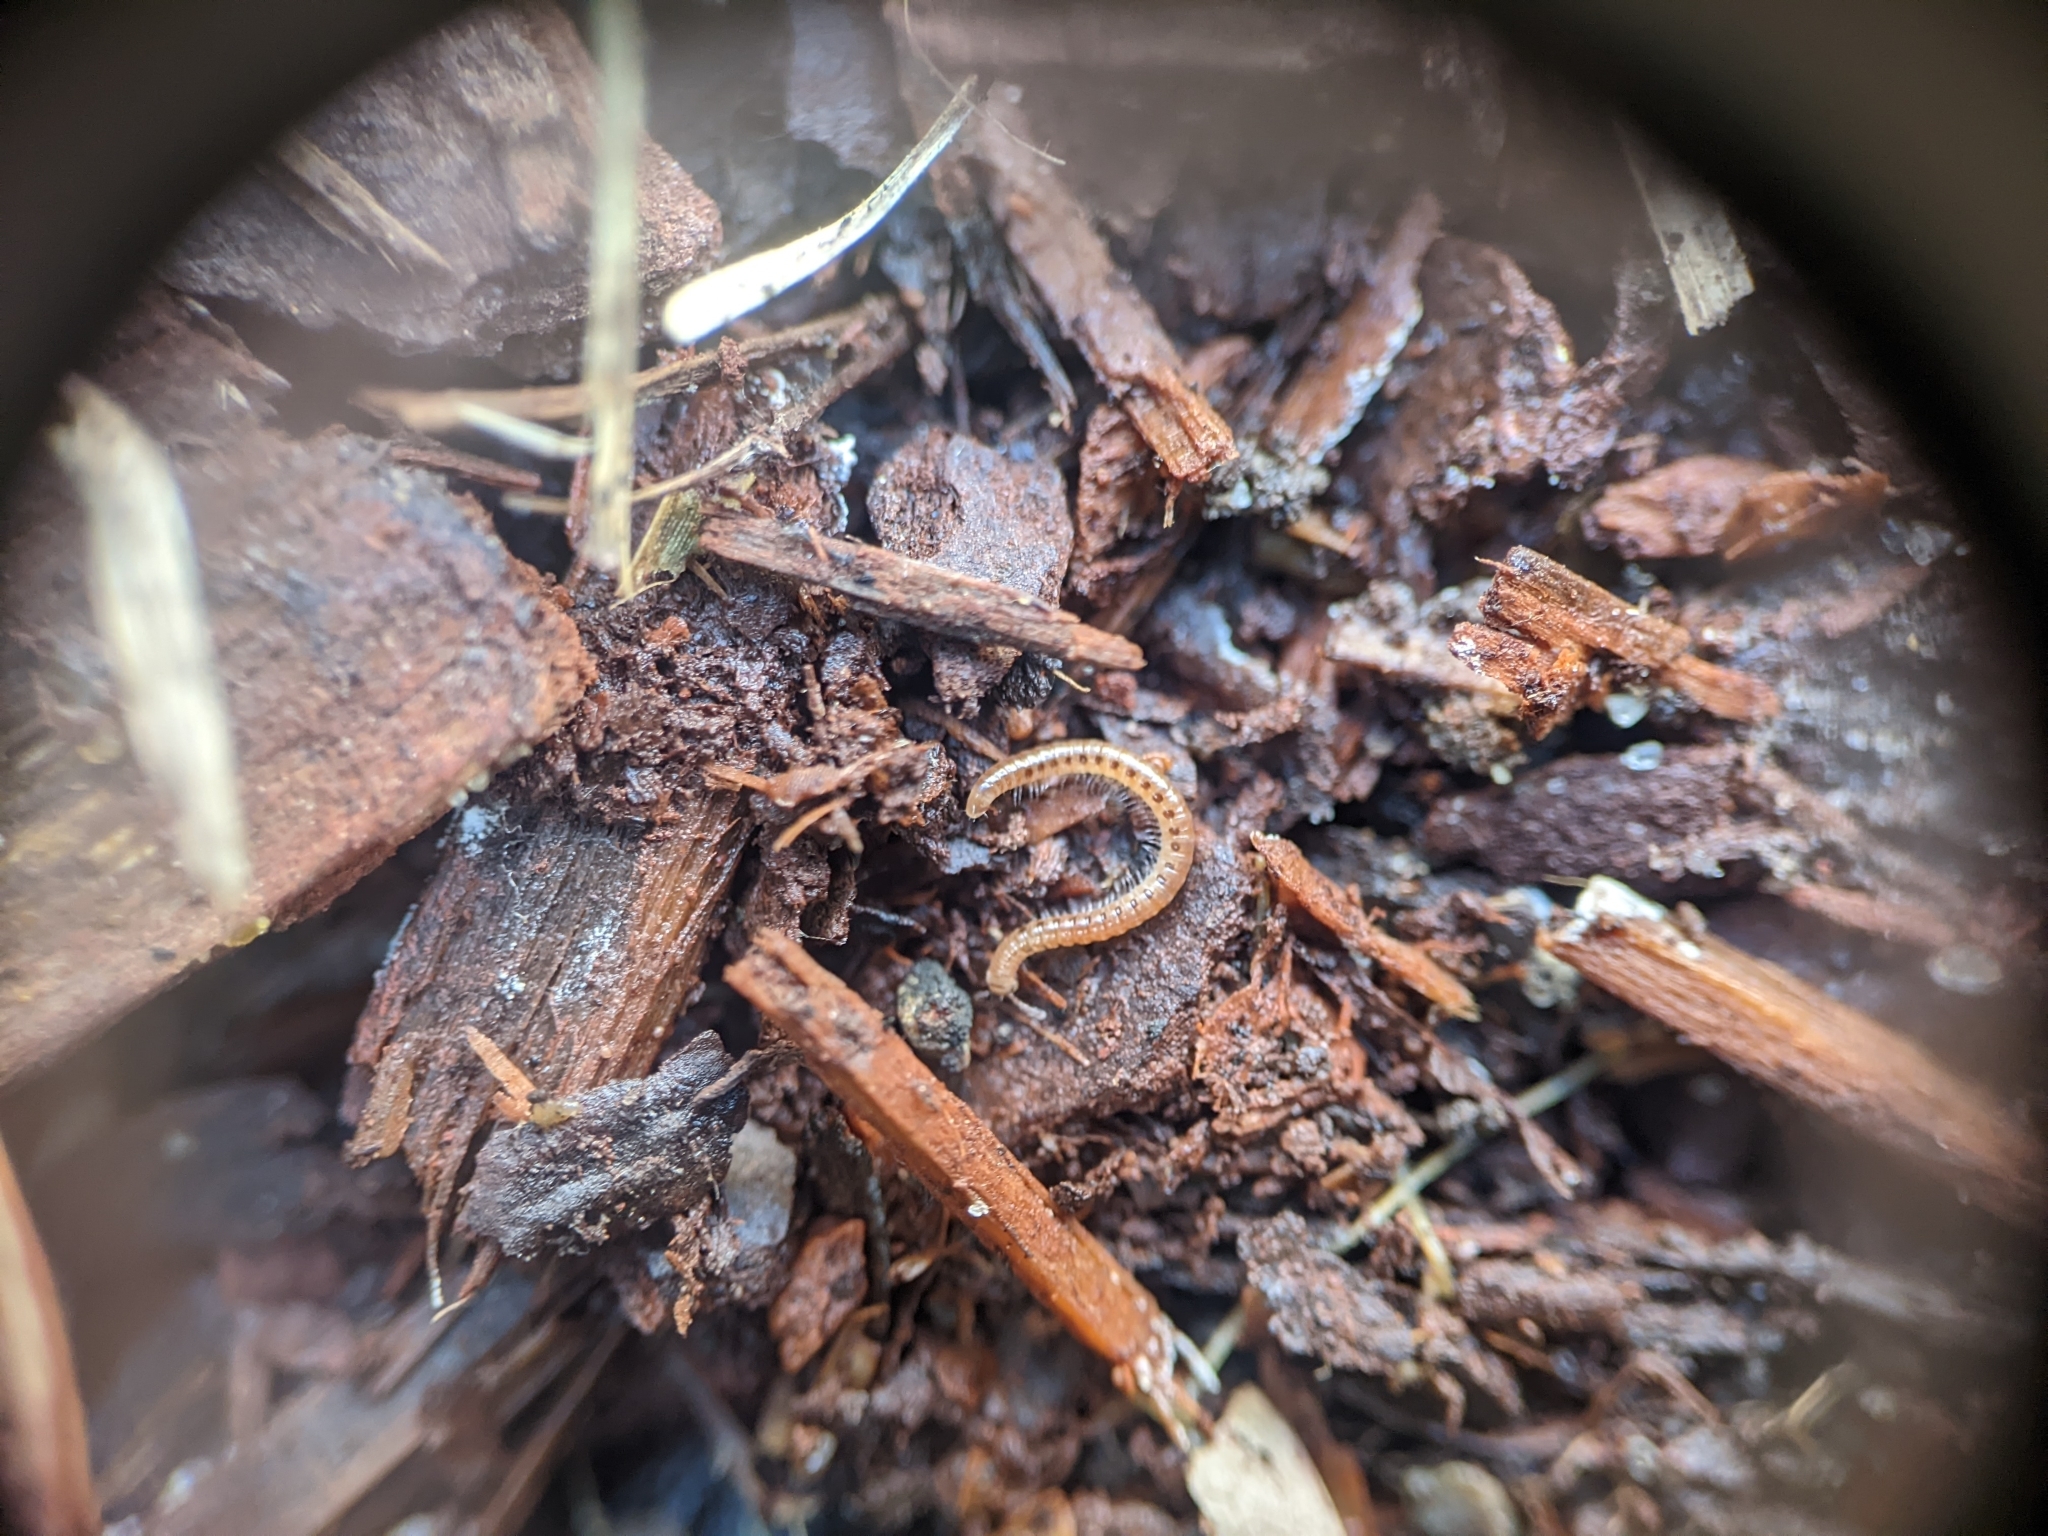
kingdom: Animalia
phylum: Arthropoda
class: Diplopoda
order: Julida
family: Blaniulidae
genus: Blaniulus
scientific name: Blaniulus guttulatus
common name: Spotted snake millipede
